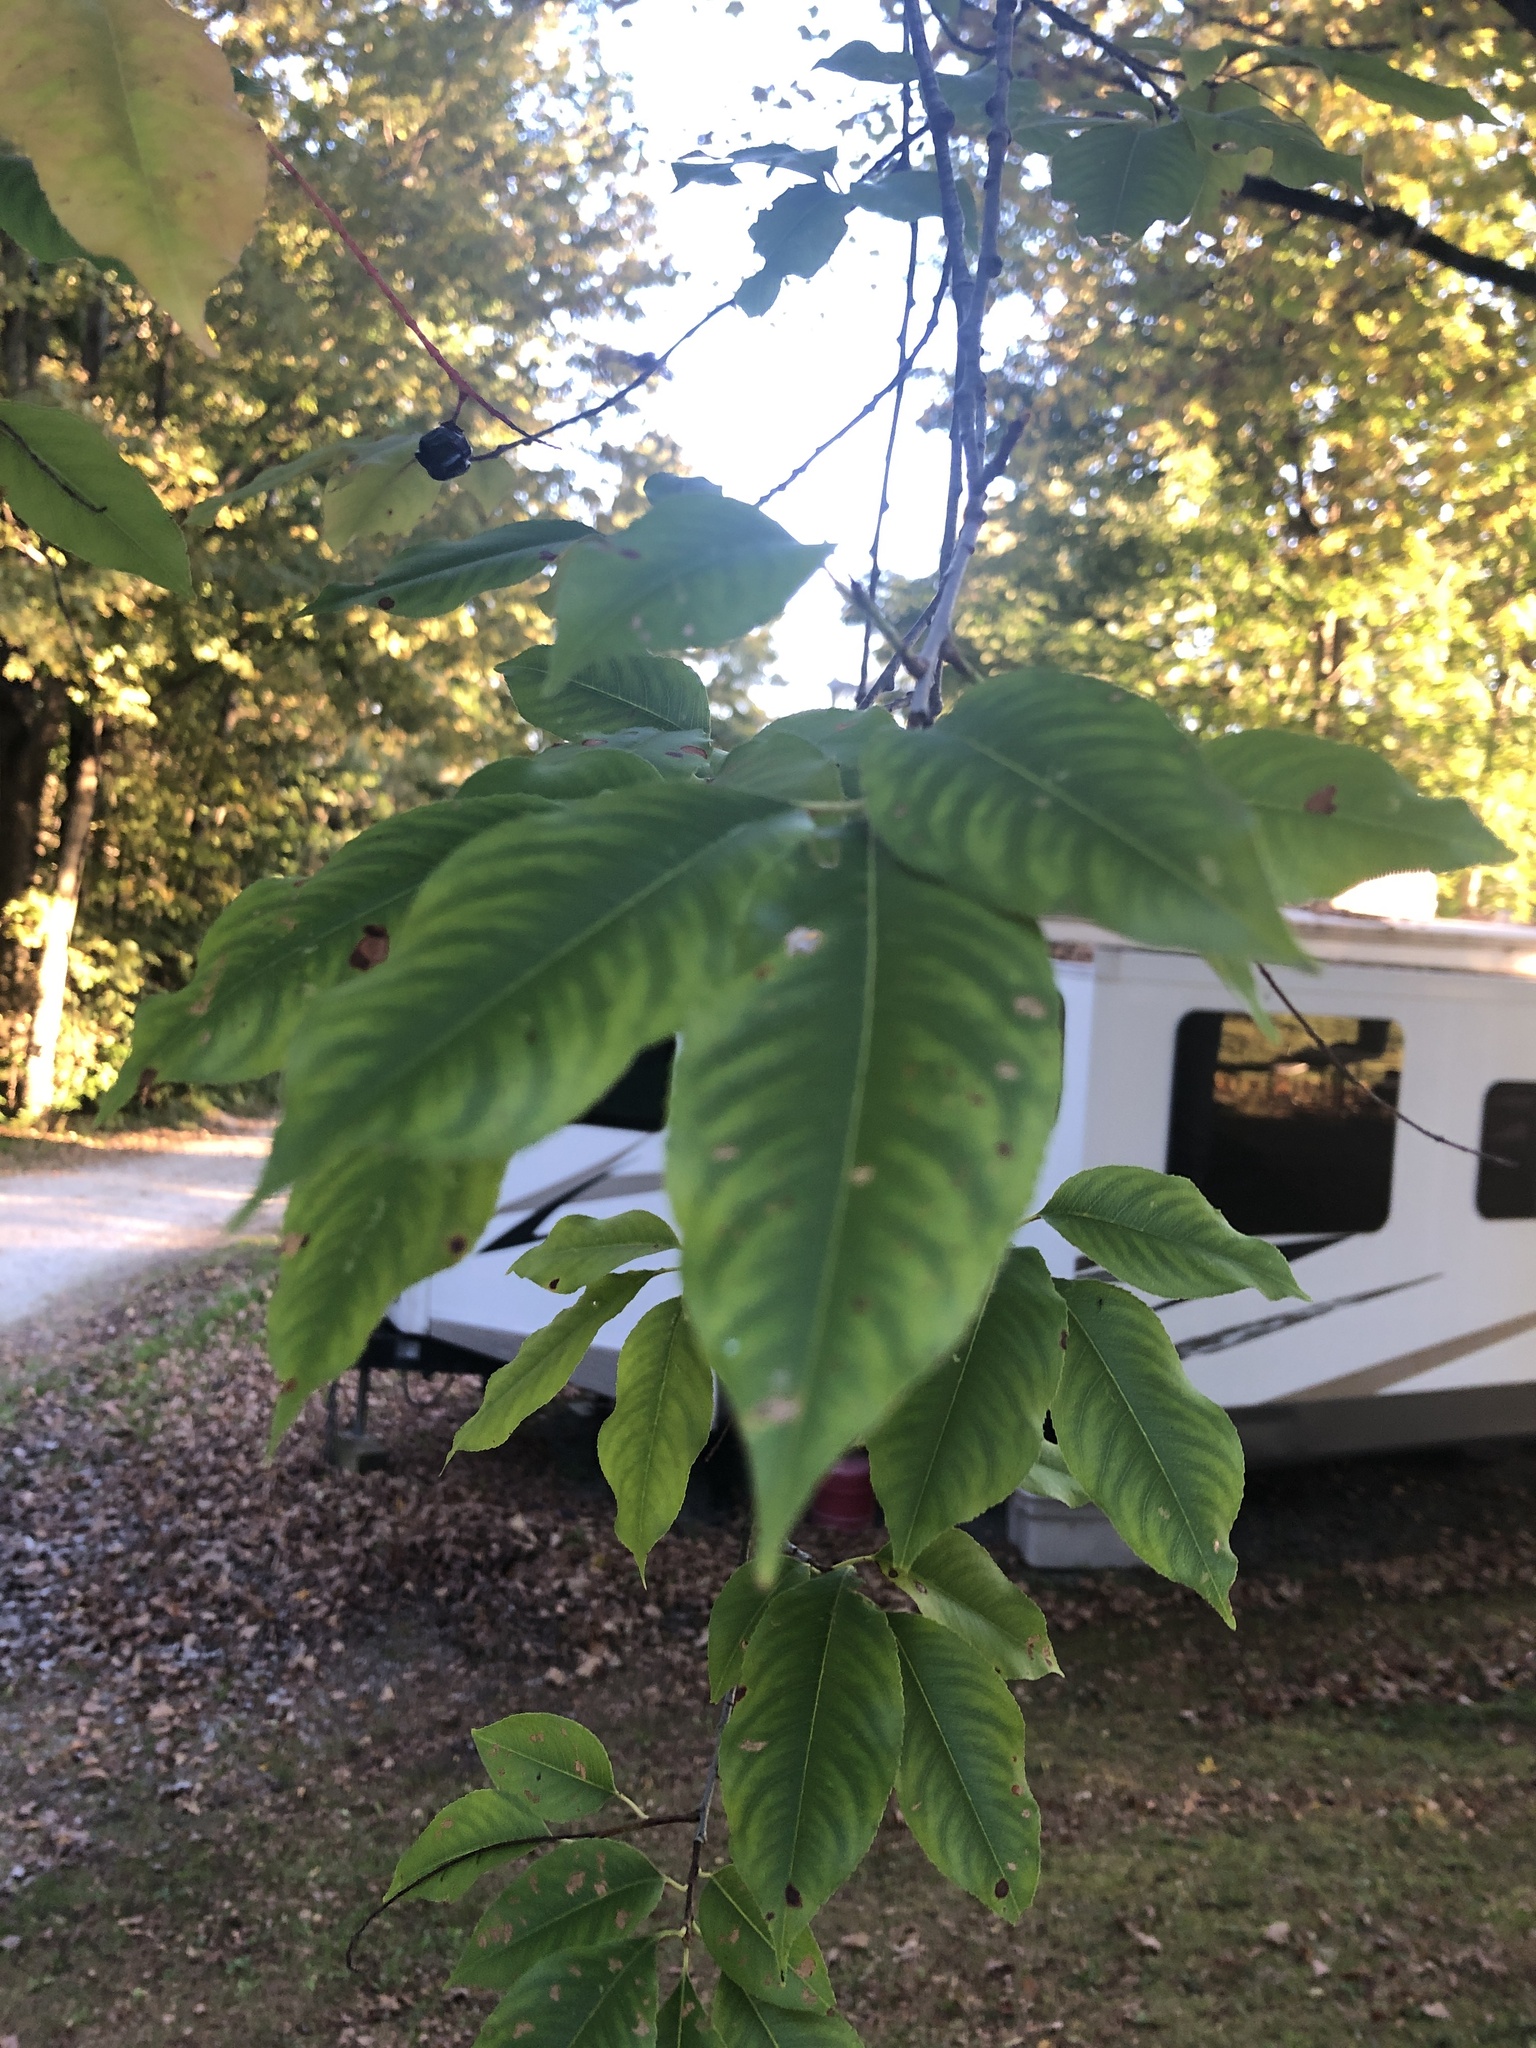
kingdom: Plantae
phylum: Tracheophyta
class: Magnoliopsida
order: Rosales
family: Rosaceae
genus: Prunus
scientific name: Prunus serotina
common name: Black cherry
